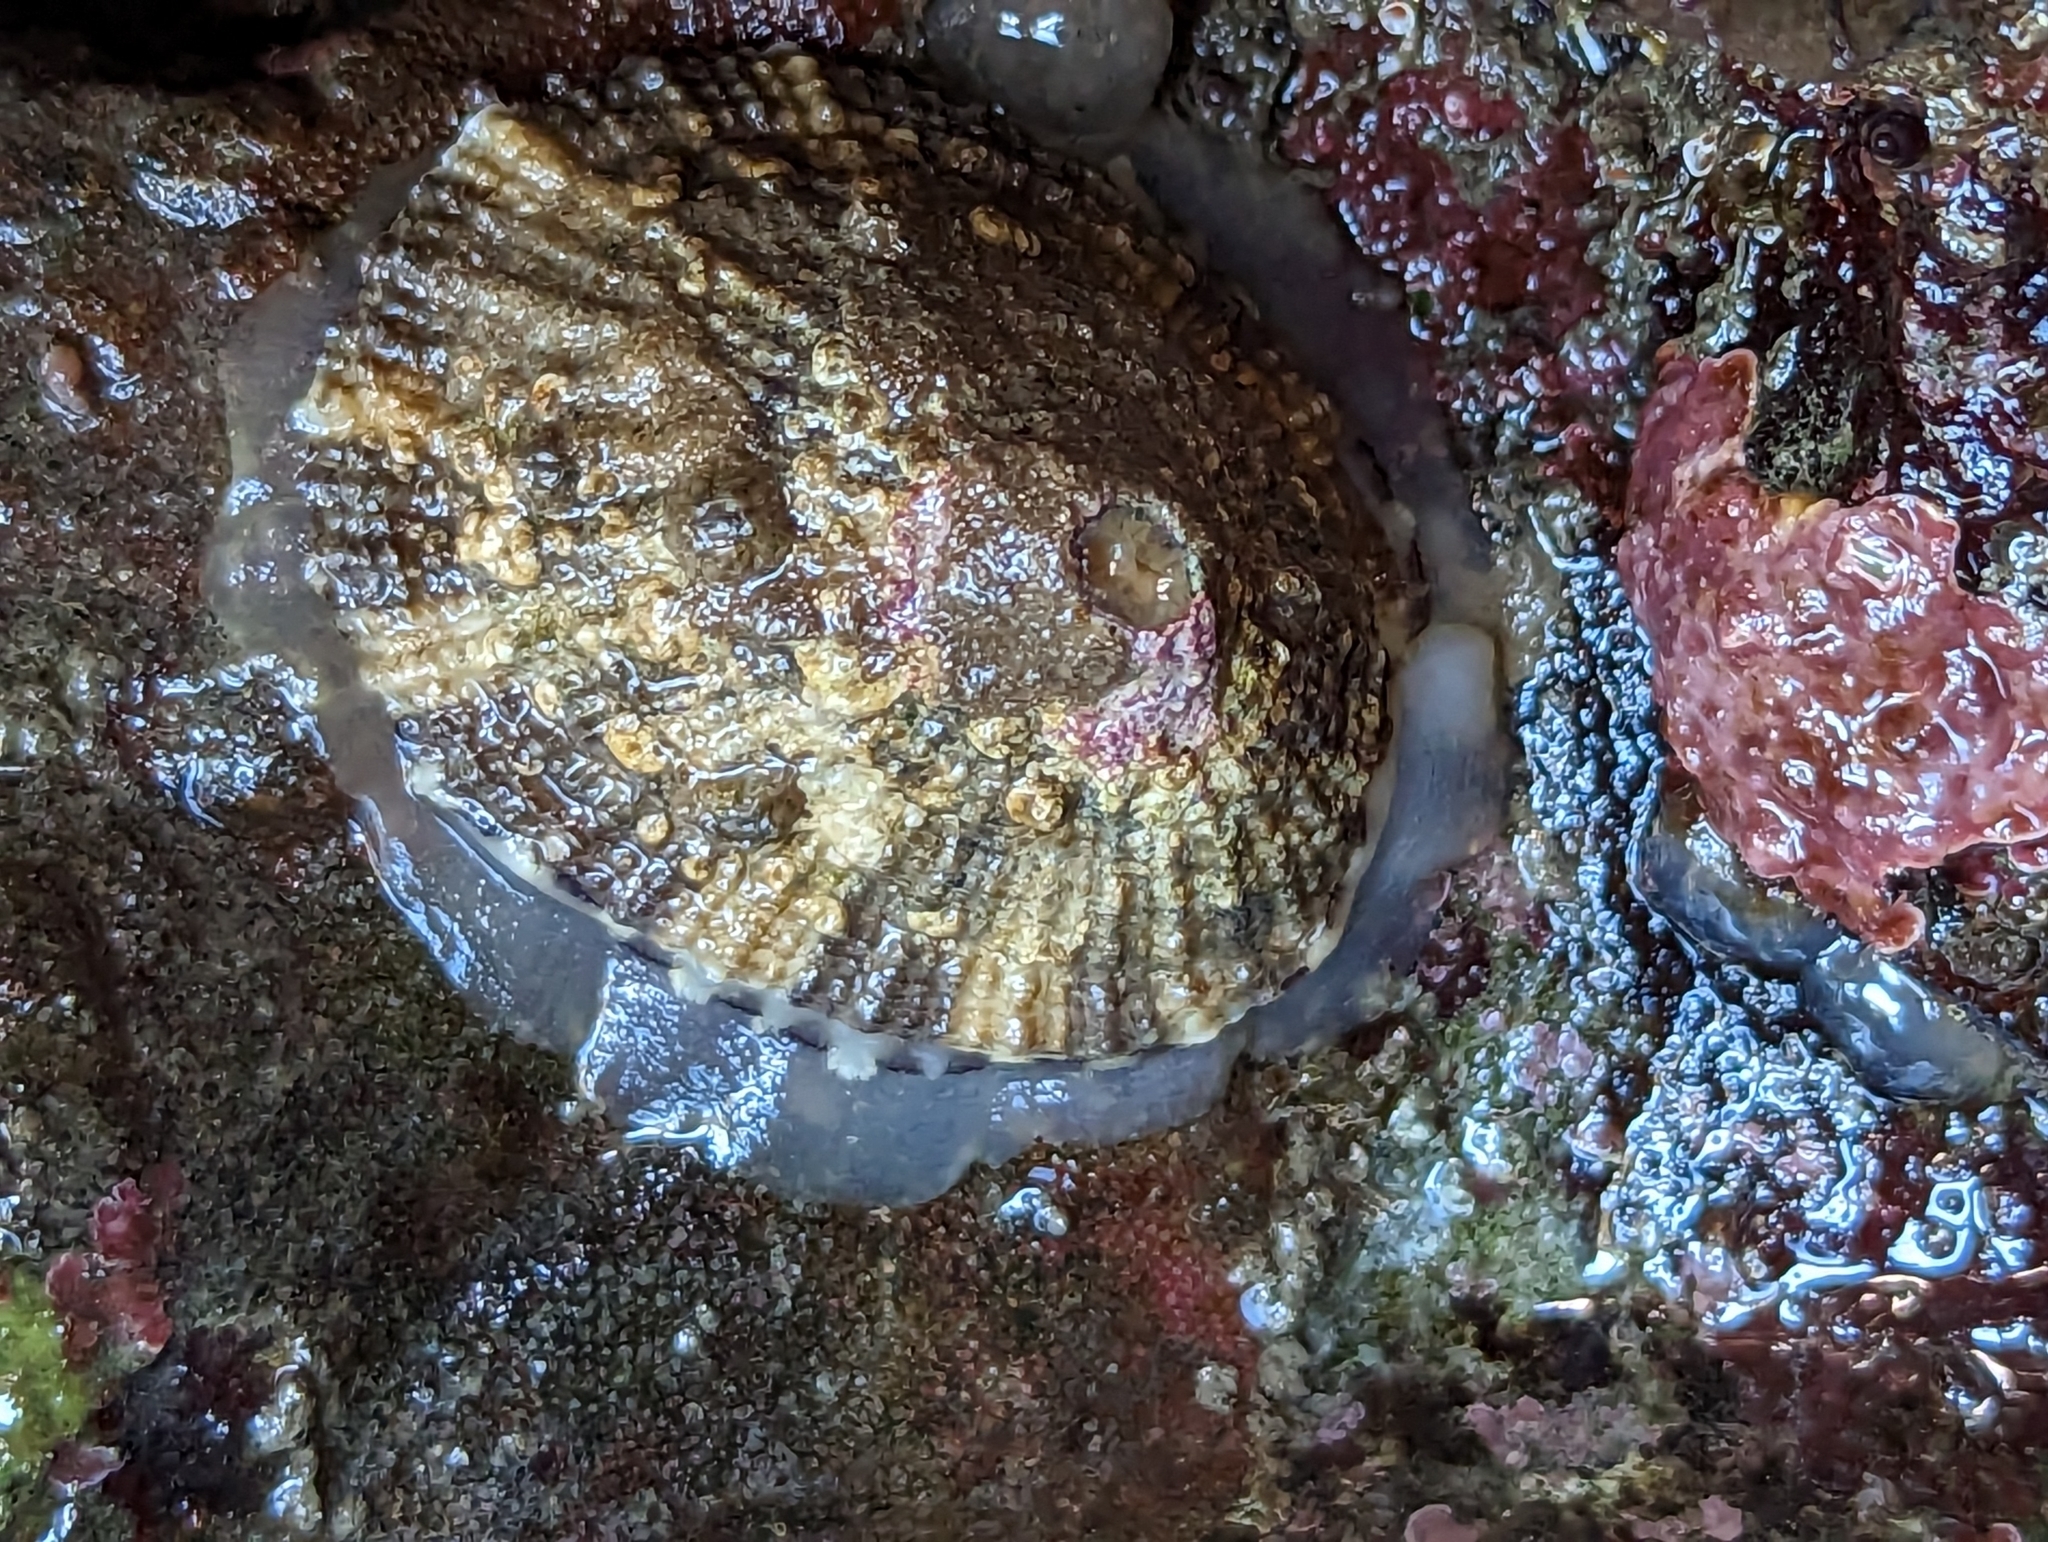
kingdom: Animalia
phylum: Mollusca
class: Gastropoda
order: Lepetellida
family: Fissurellidae
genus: Diodora
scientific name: Diodora aspera
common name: Rough keyhole limpet
